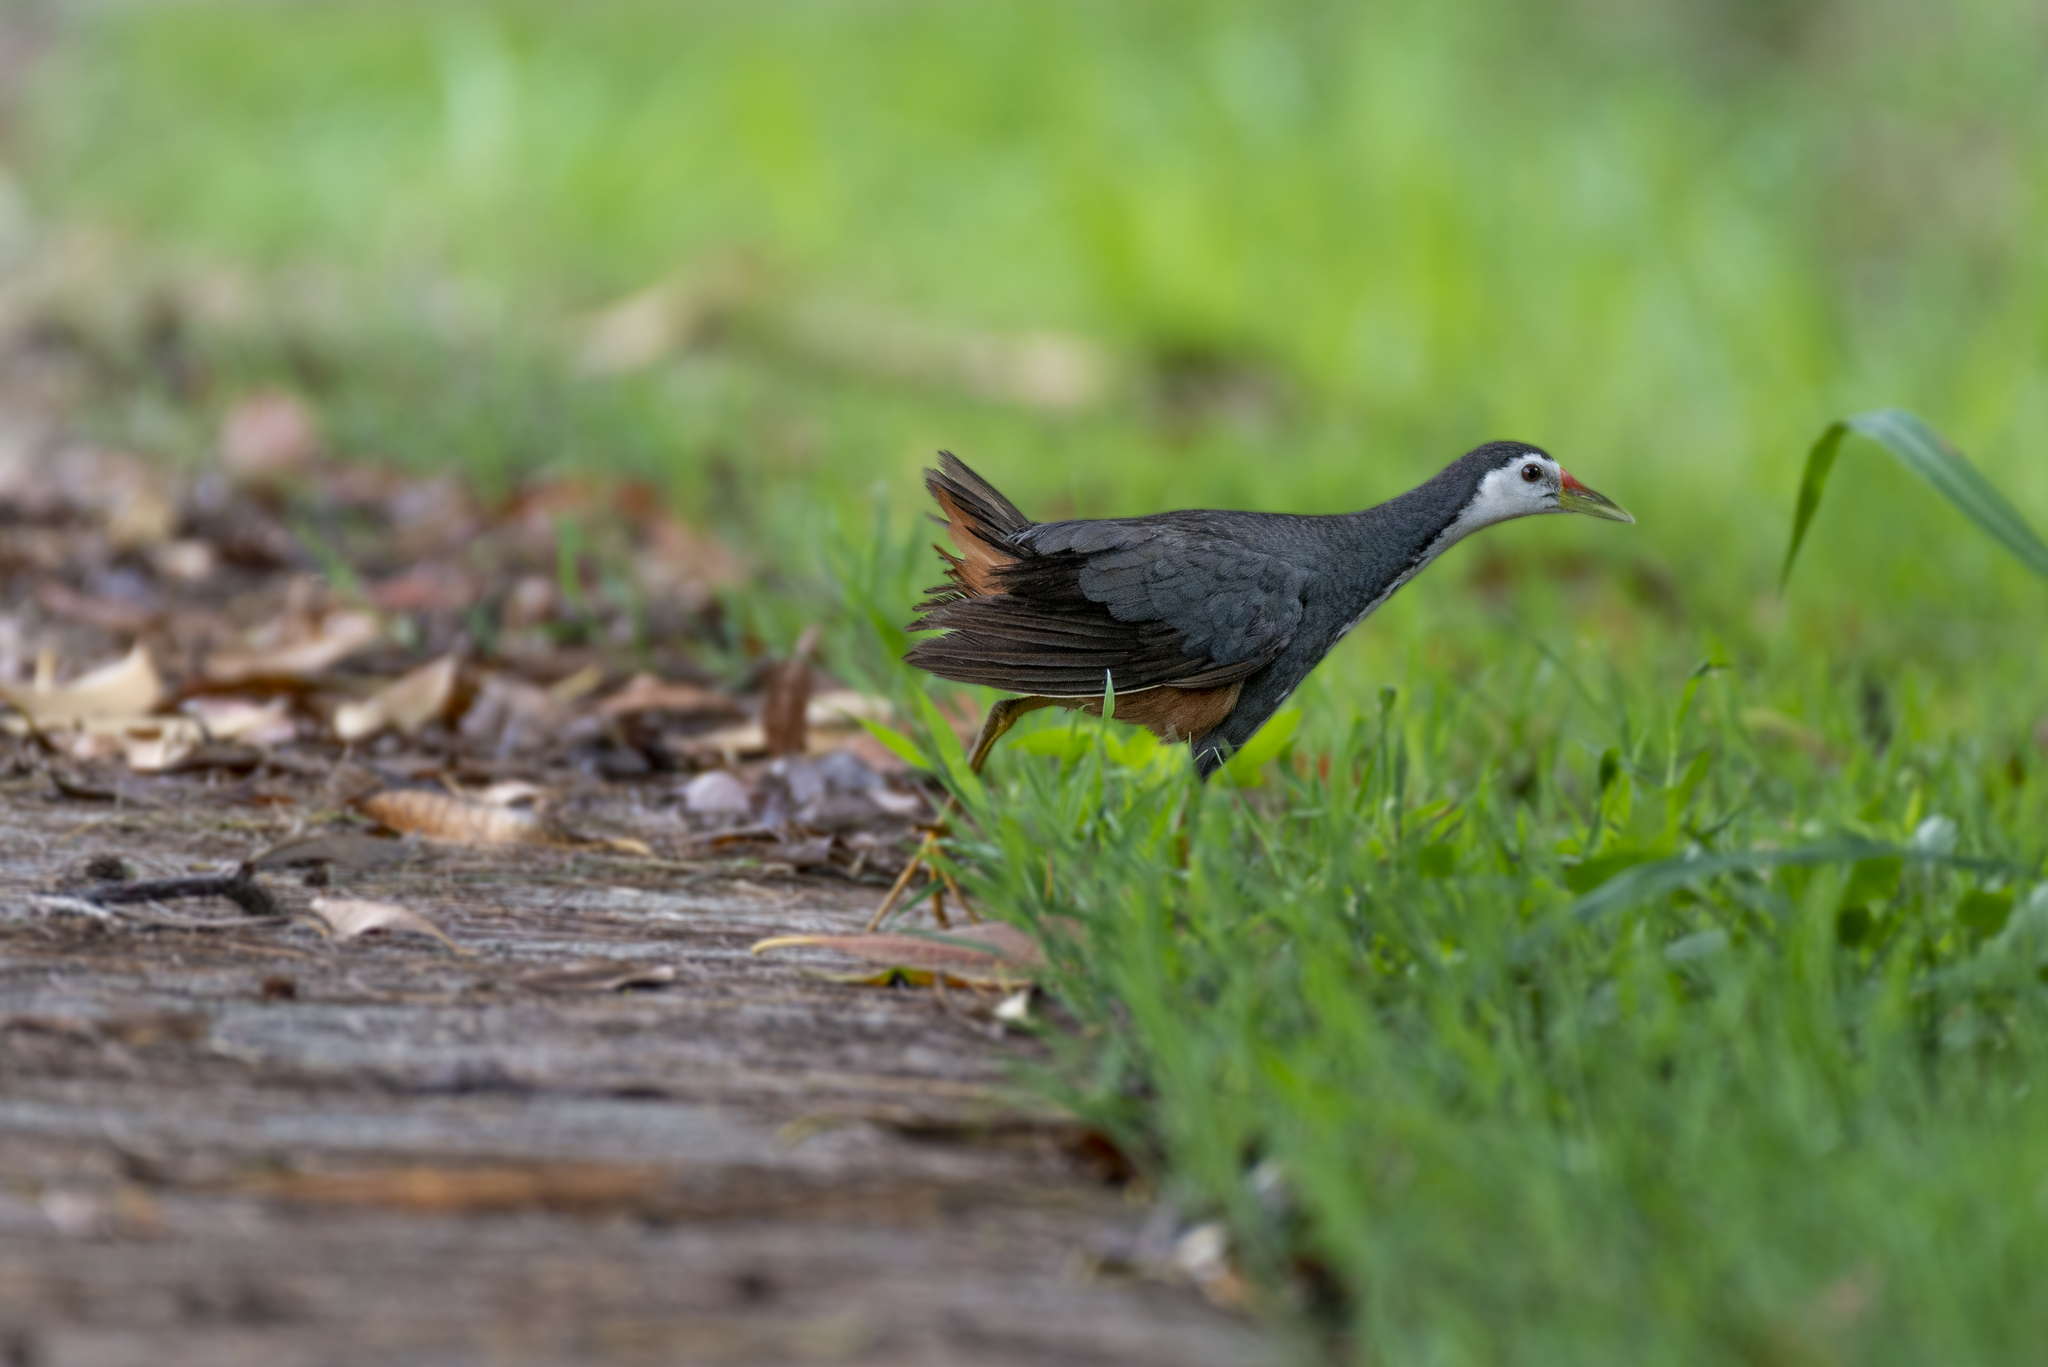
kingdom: Animalia
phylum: Chordata
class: Aves
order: Gruiformes
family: Rallidae
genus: Amaurornis
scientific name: Amaurornis phoenicurus
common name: White-breasted waterhen
